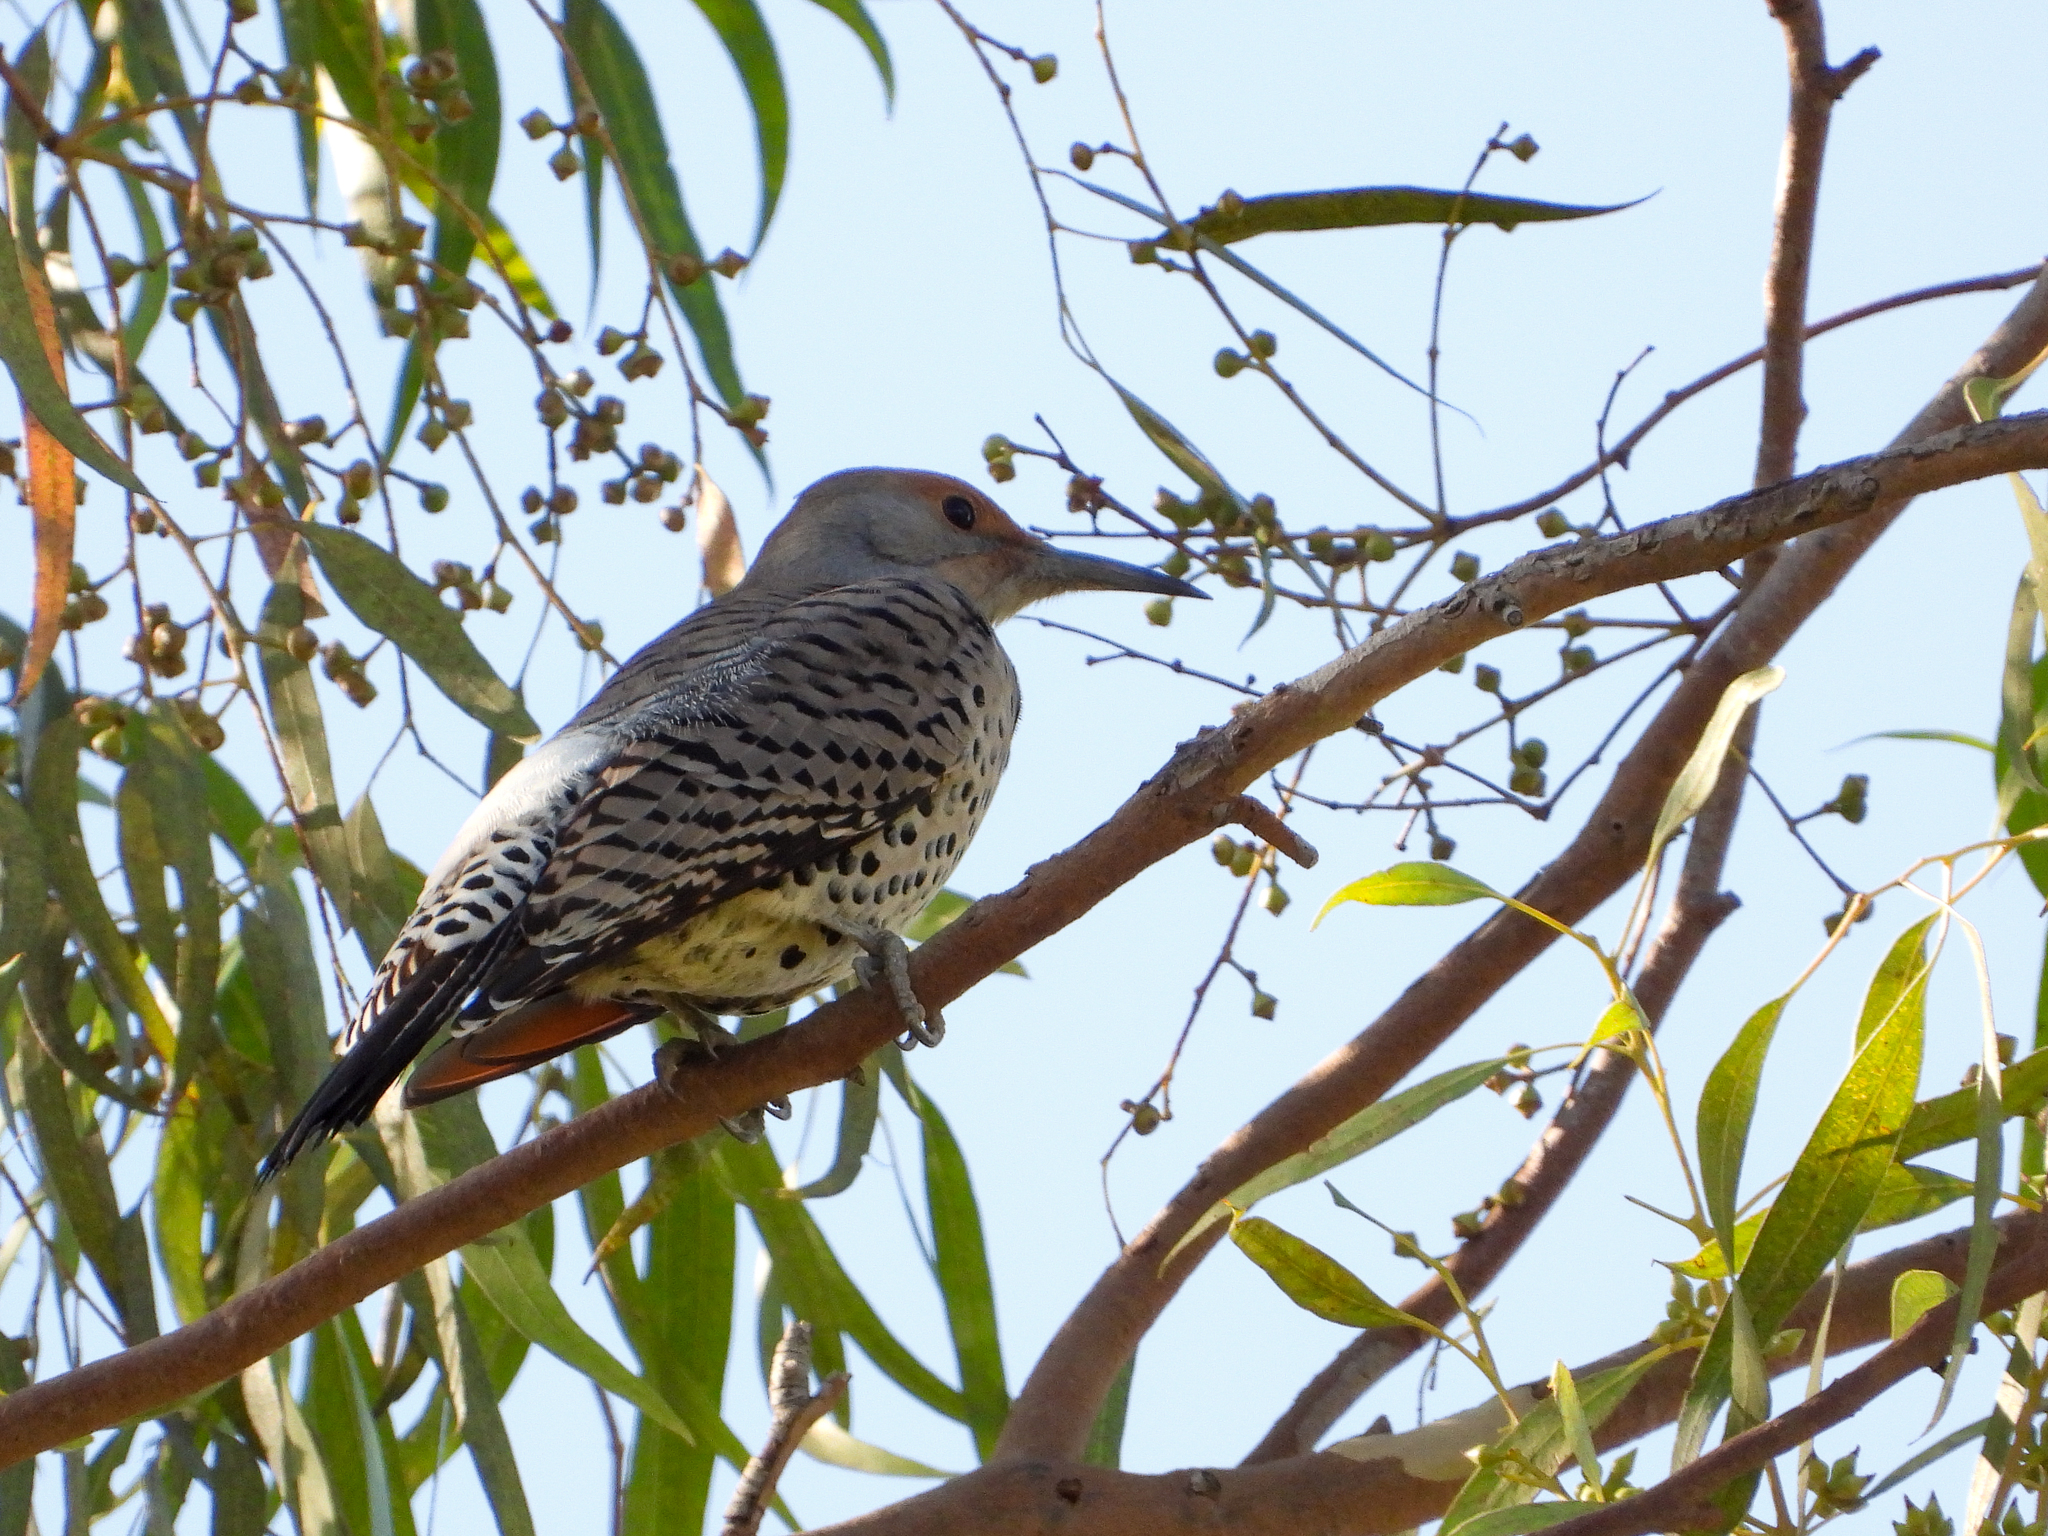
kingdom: Animalia
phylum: Chordata
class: Aves
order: Piciformes
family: Picidae
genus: Colaptes
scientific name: Colaptes auratus
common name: Northern flicker
